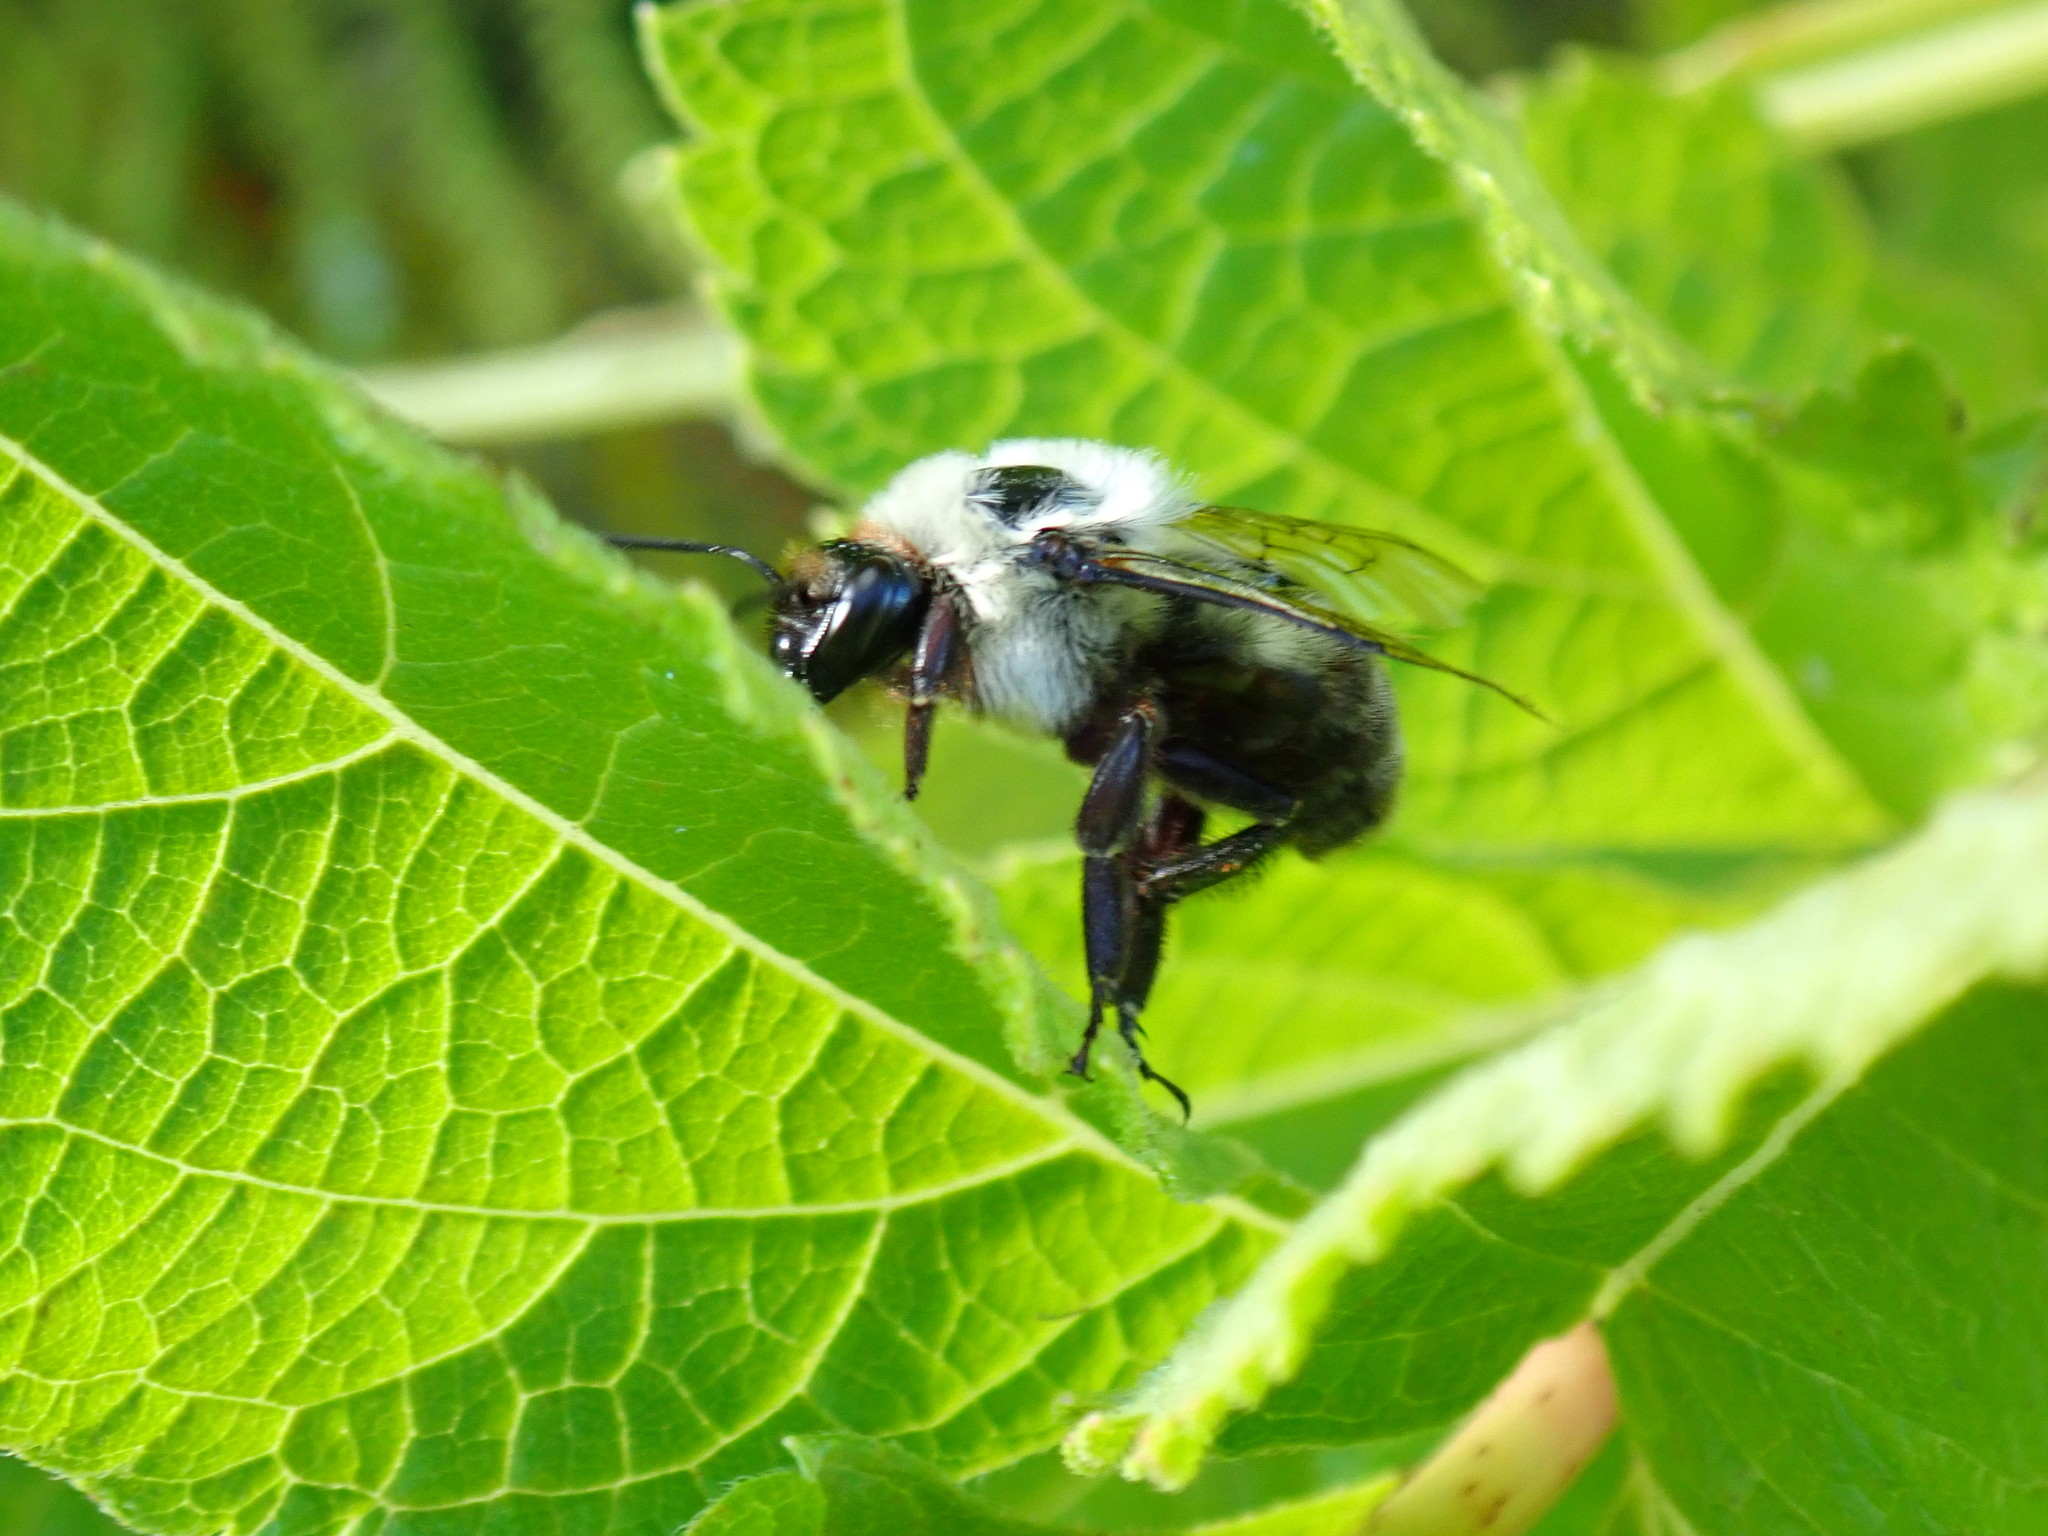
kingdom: Animalia
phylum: Arthropoda
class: Insecta
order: Hymenoptera
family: Apidae
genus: Bombus
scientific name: Bombus griseocollis
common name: Brown-belted bumble bee
